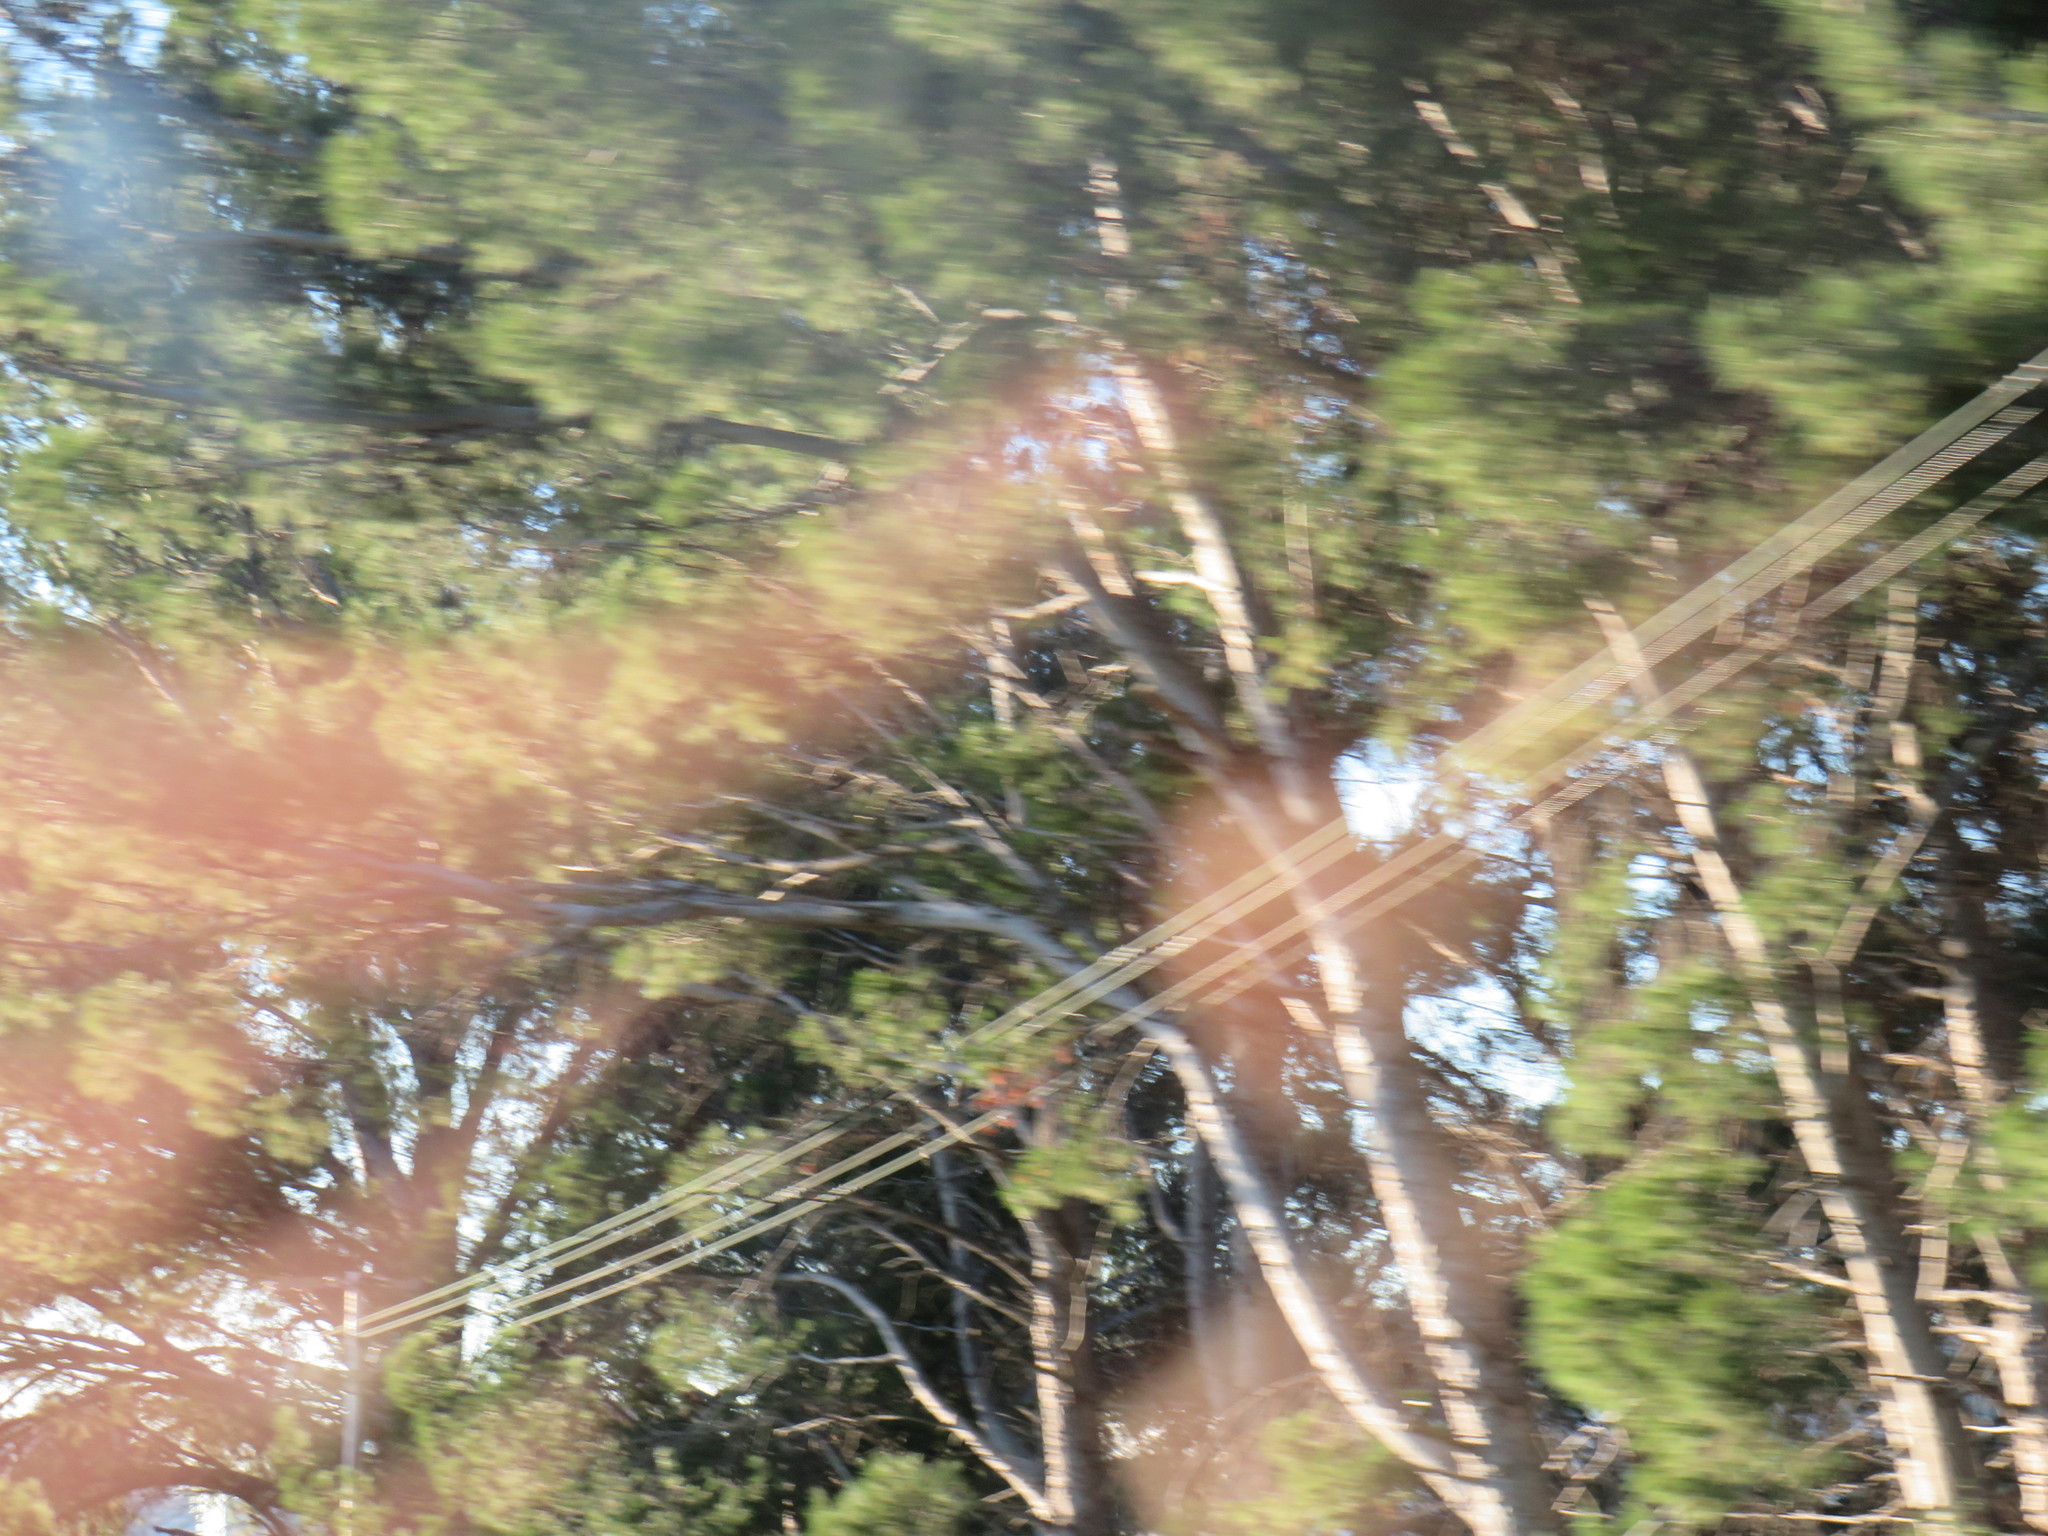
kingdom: Plantae
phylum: Tracheophyta
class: Pinopsida
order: Pinales
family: Pinaceae
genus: Pinus
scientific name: Pinus halepensis
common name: Aleppo pine
